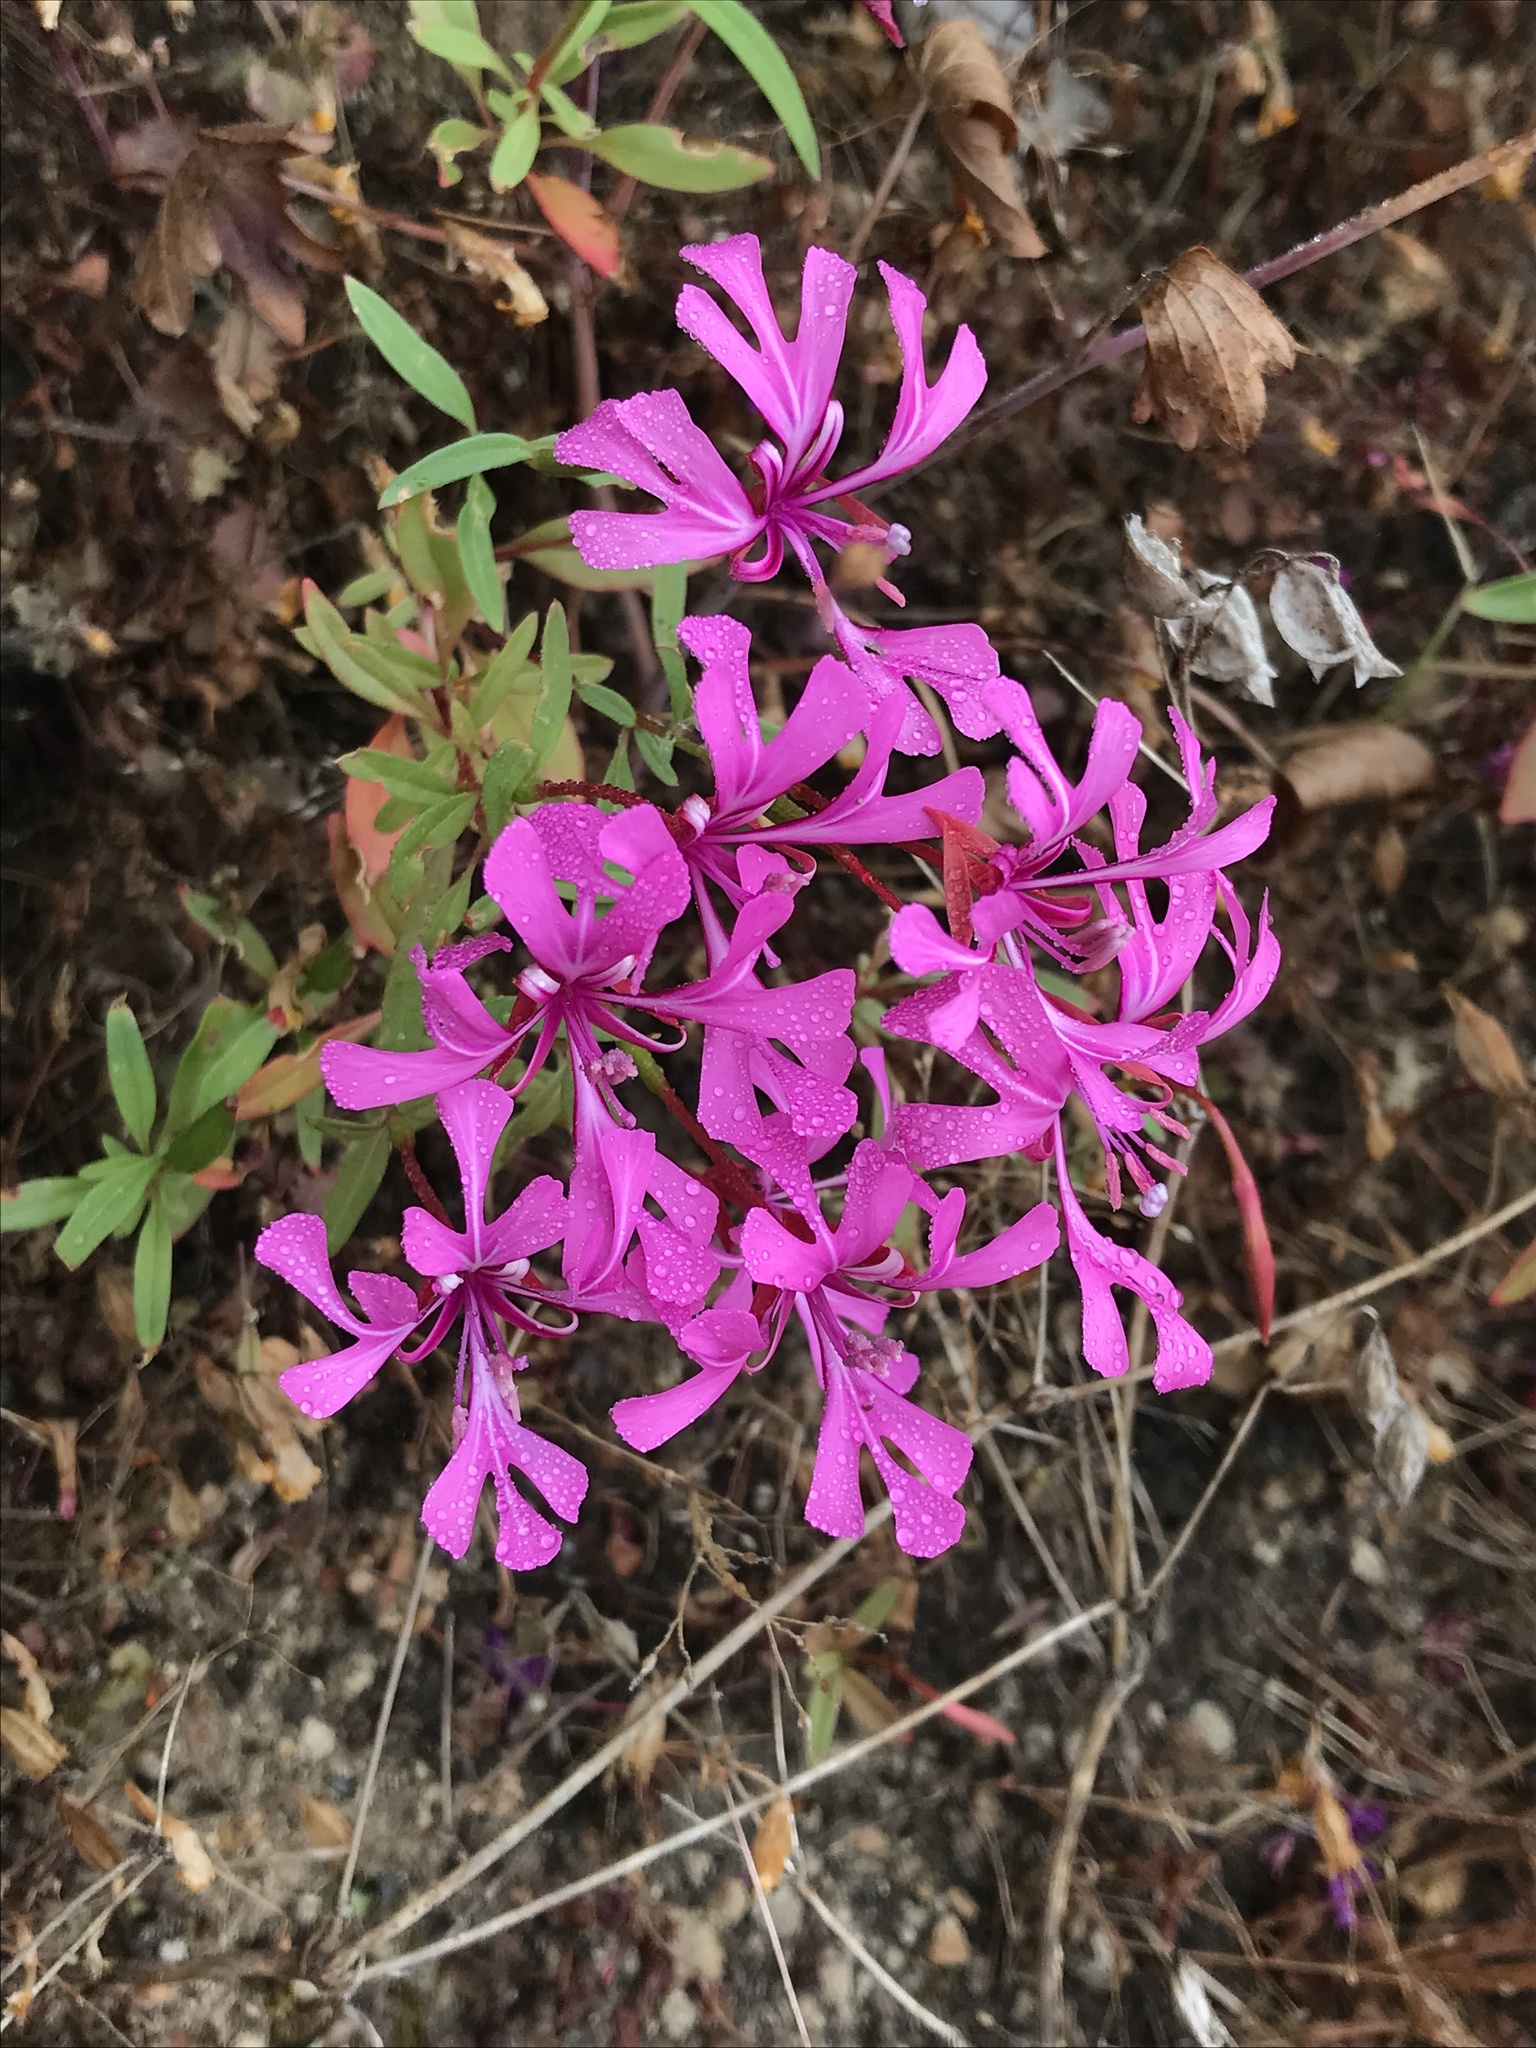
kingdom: Plantae
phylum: Tracheophyta
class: Magnoliopsida
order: Myrtales
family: Onagraceae
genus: Clarkia
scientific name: Clarkia concinna
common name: Red-ribbons
